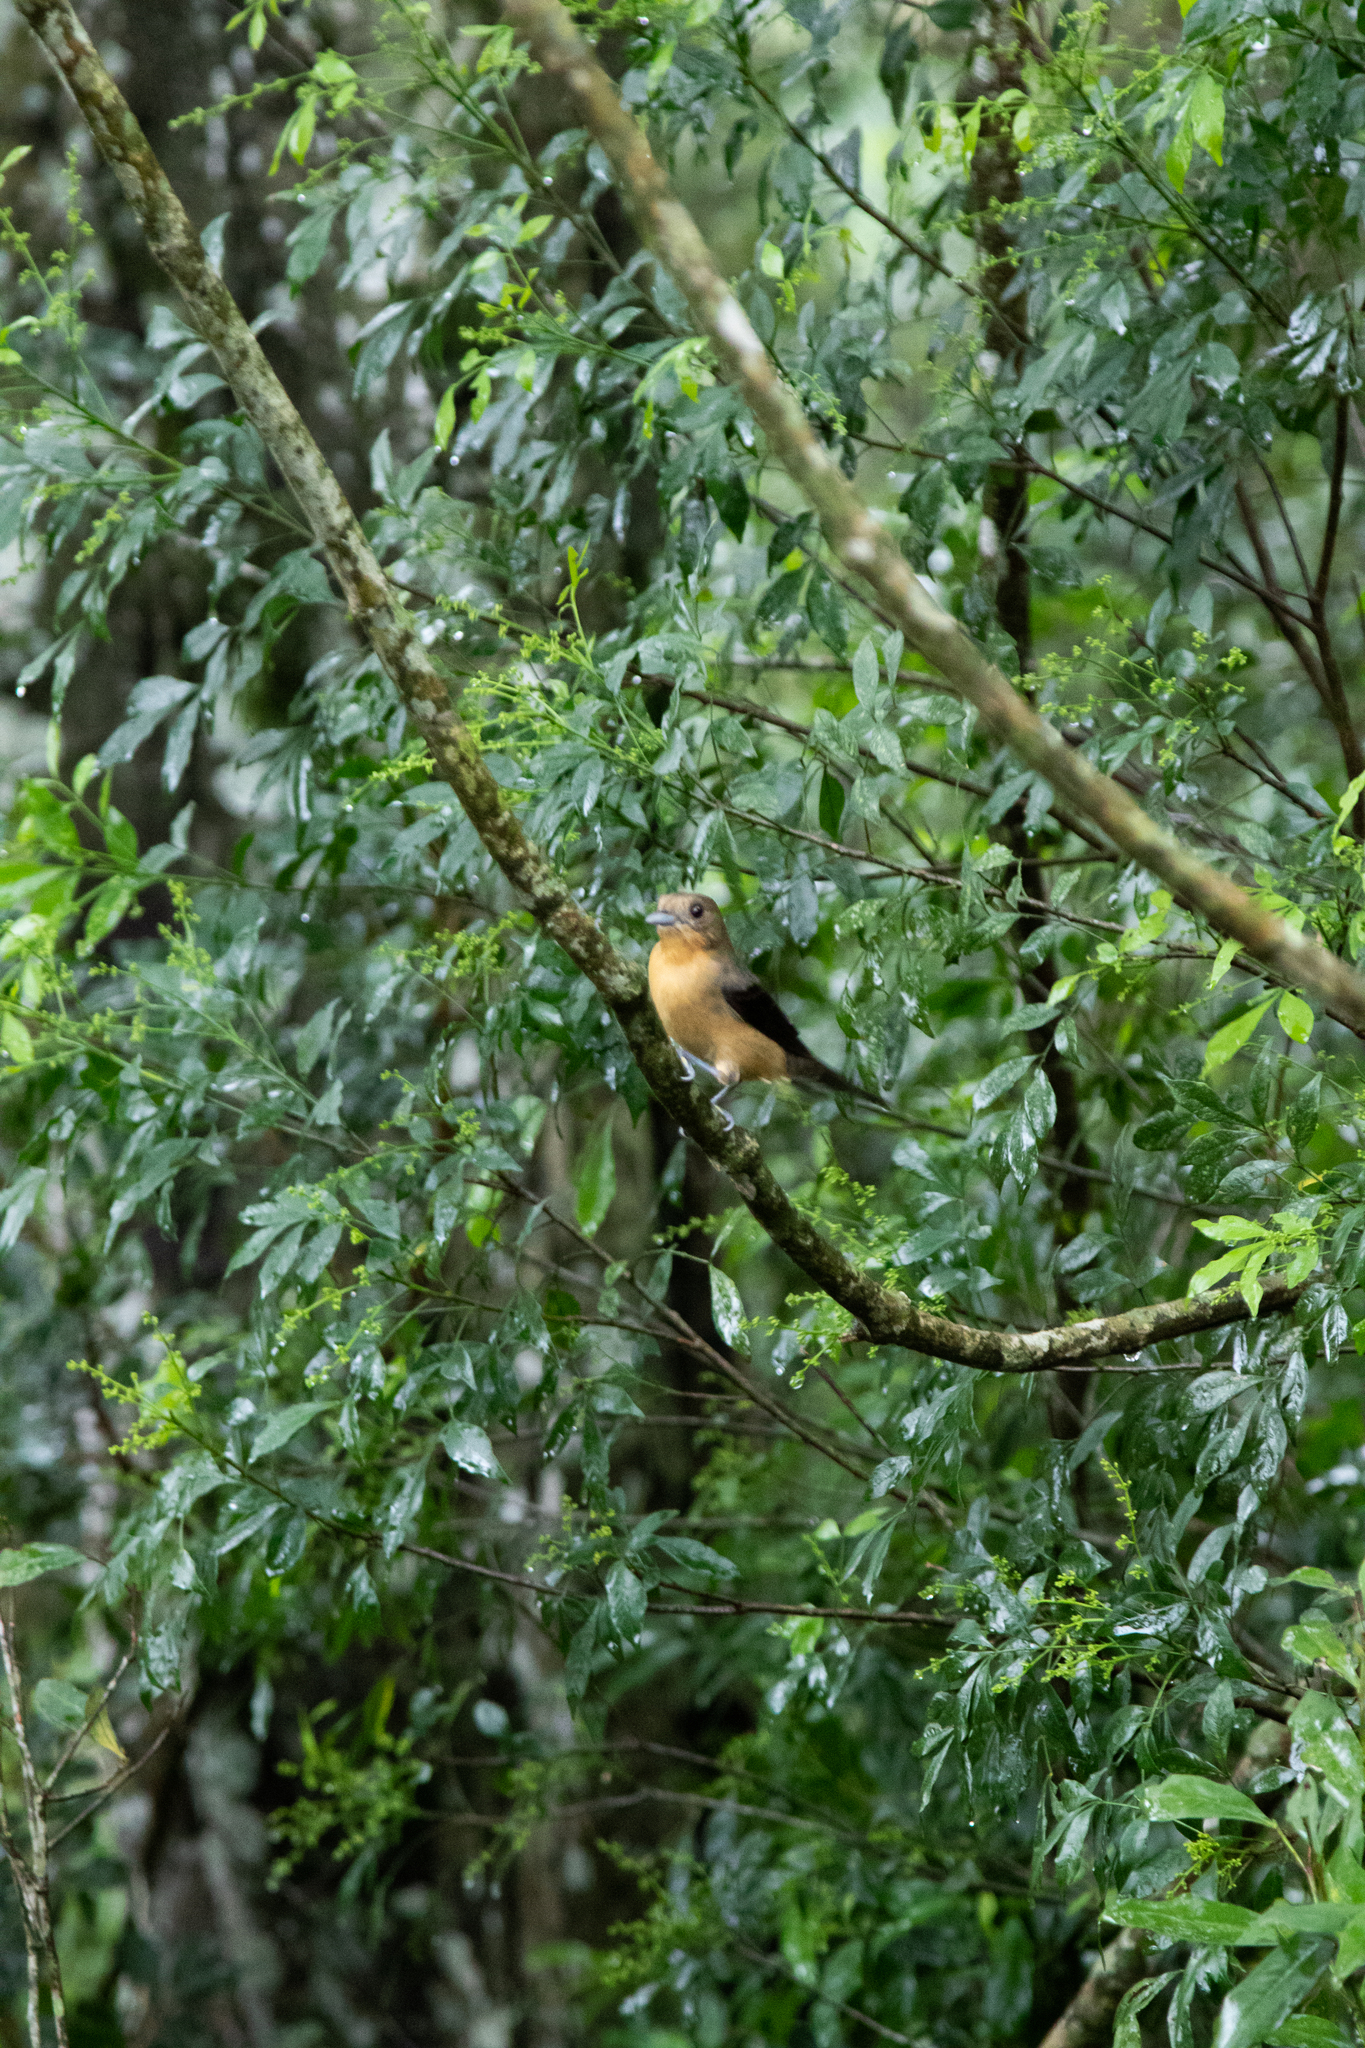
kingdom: Animalia
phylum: Chordata
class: Aves
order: Passeriformes
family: Thraupidae
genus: Trichothraupis
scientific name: Trichothraupis melanops
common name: Black-goggled tanager
